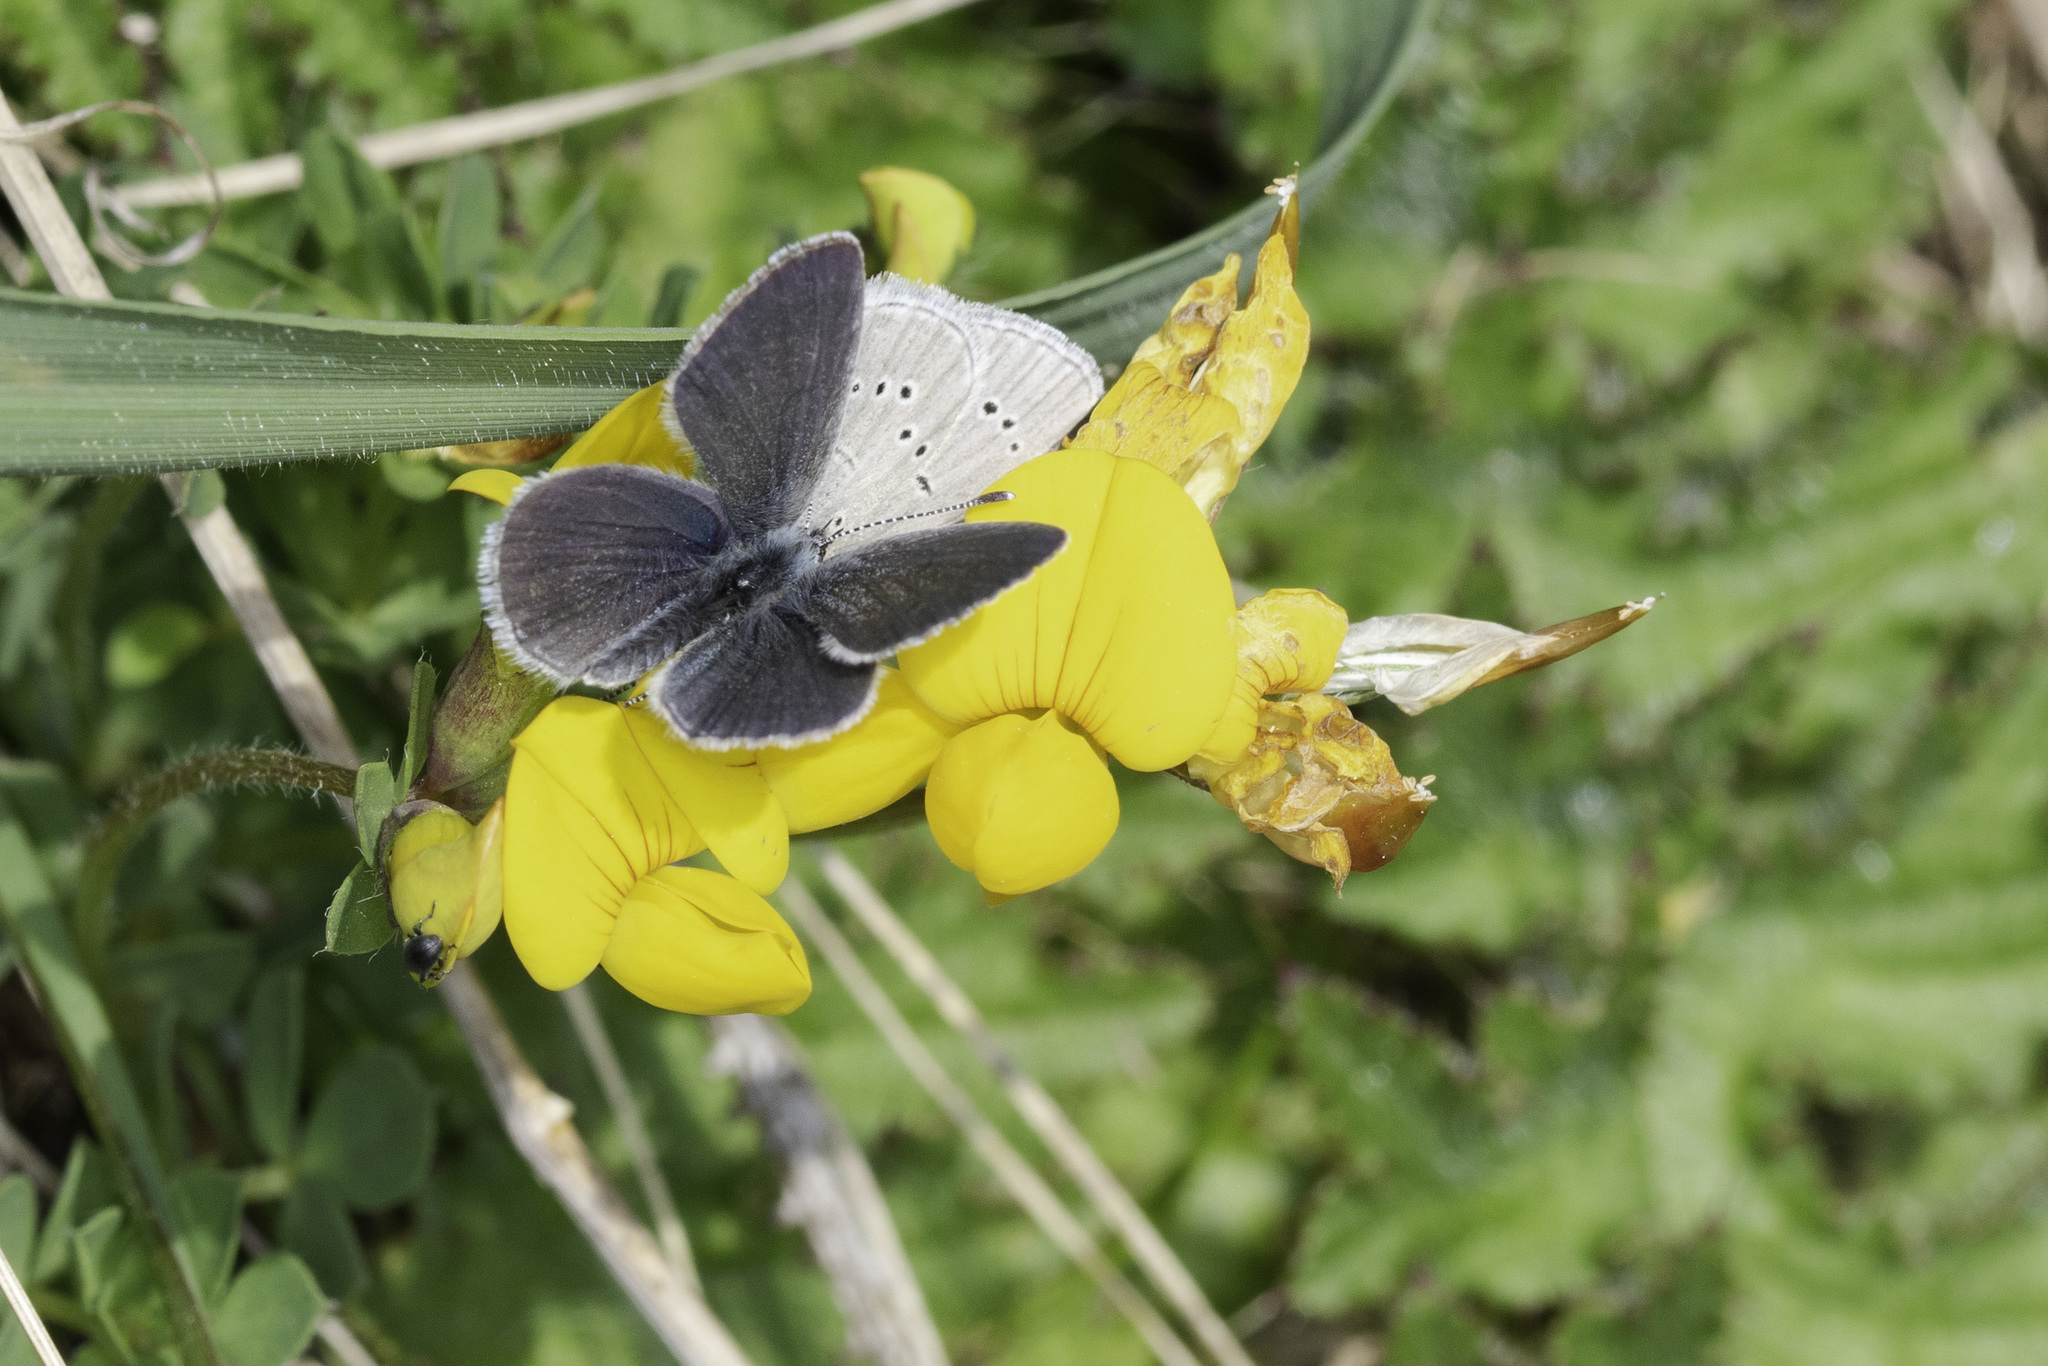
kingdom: Animalia
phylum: Arthropoda
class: Insecta
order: Lepidoptera
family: Lycaenidae
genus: Cupido
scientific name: Cupido minimus
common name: Small blue
